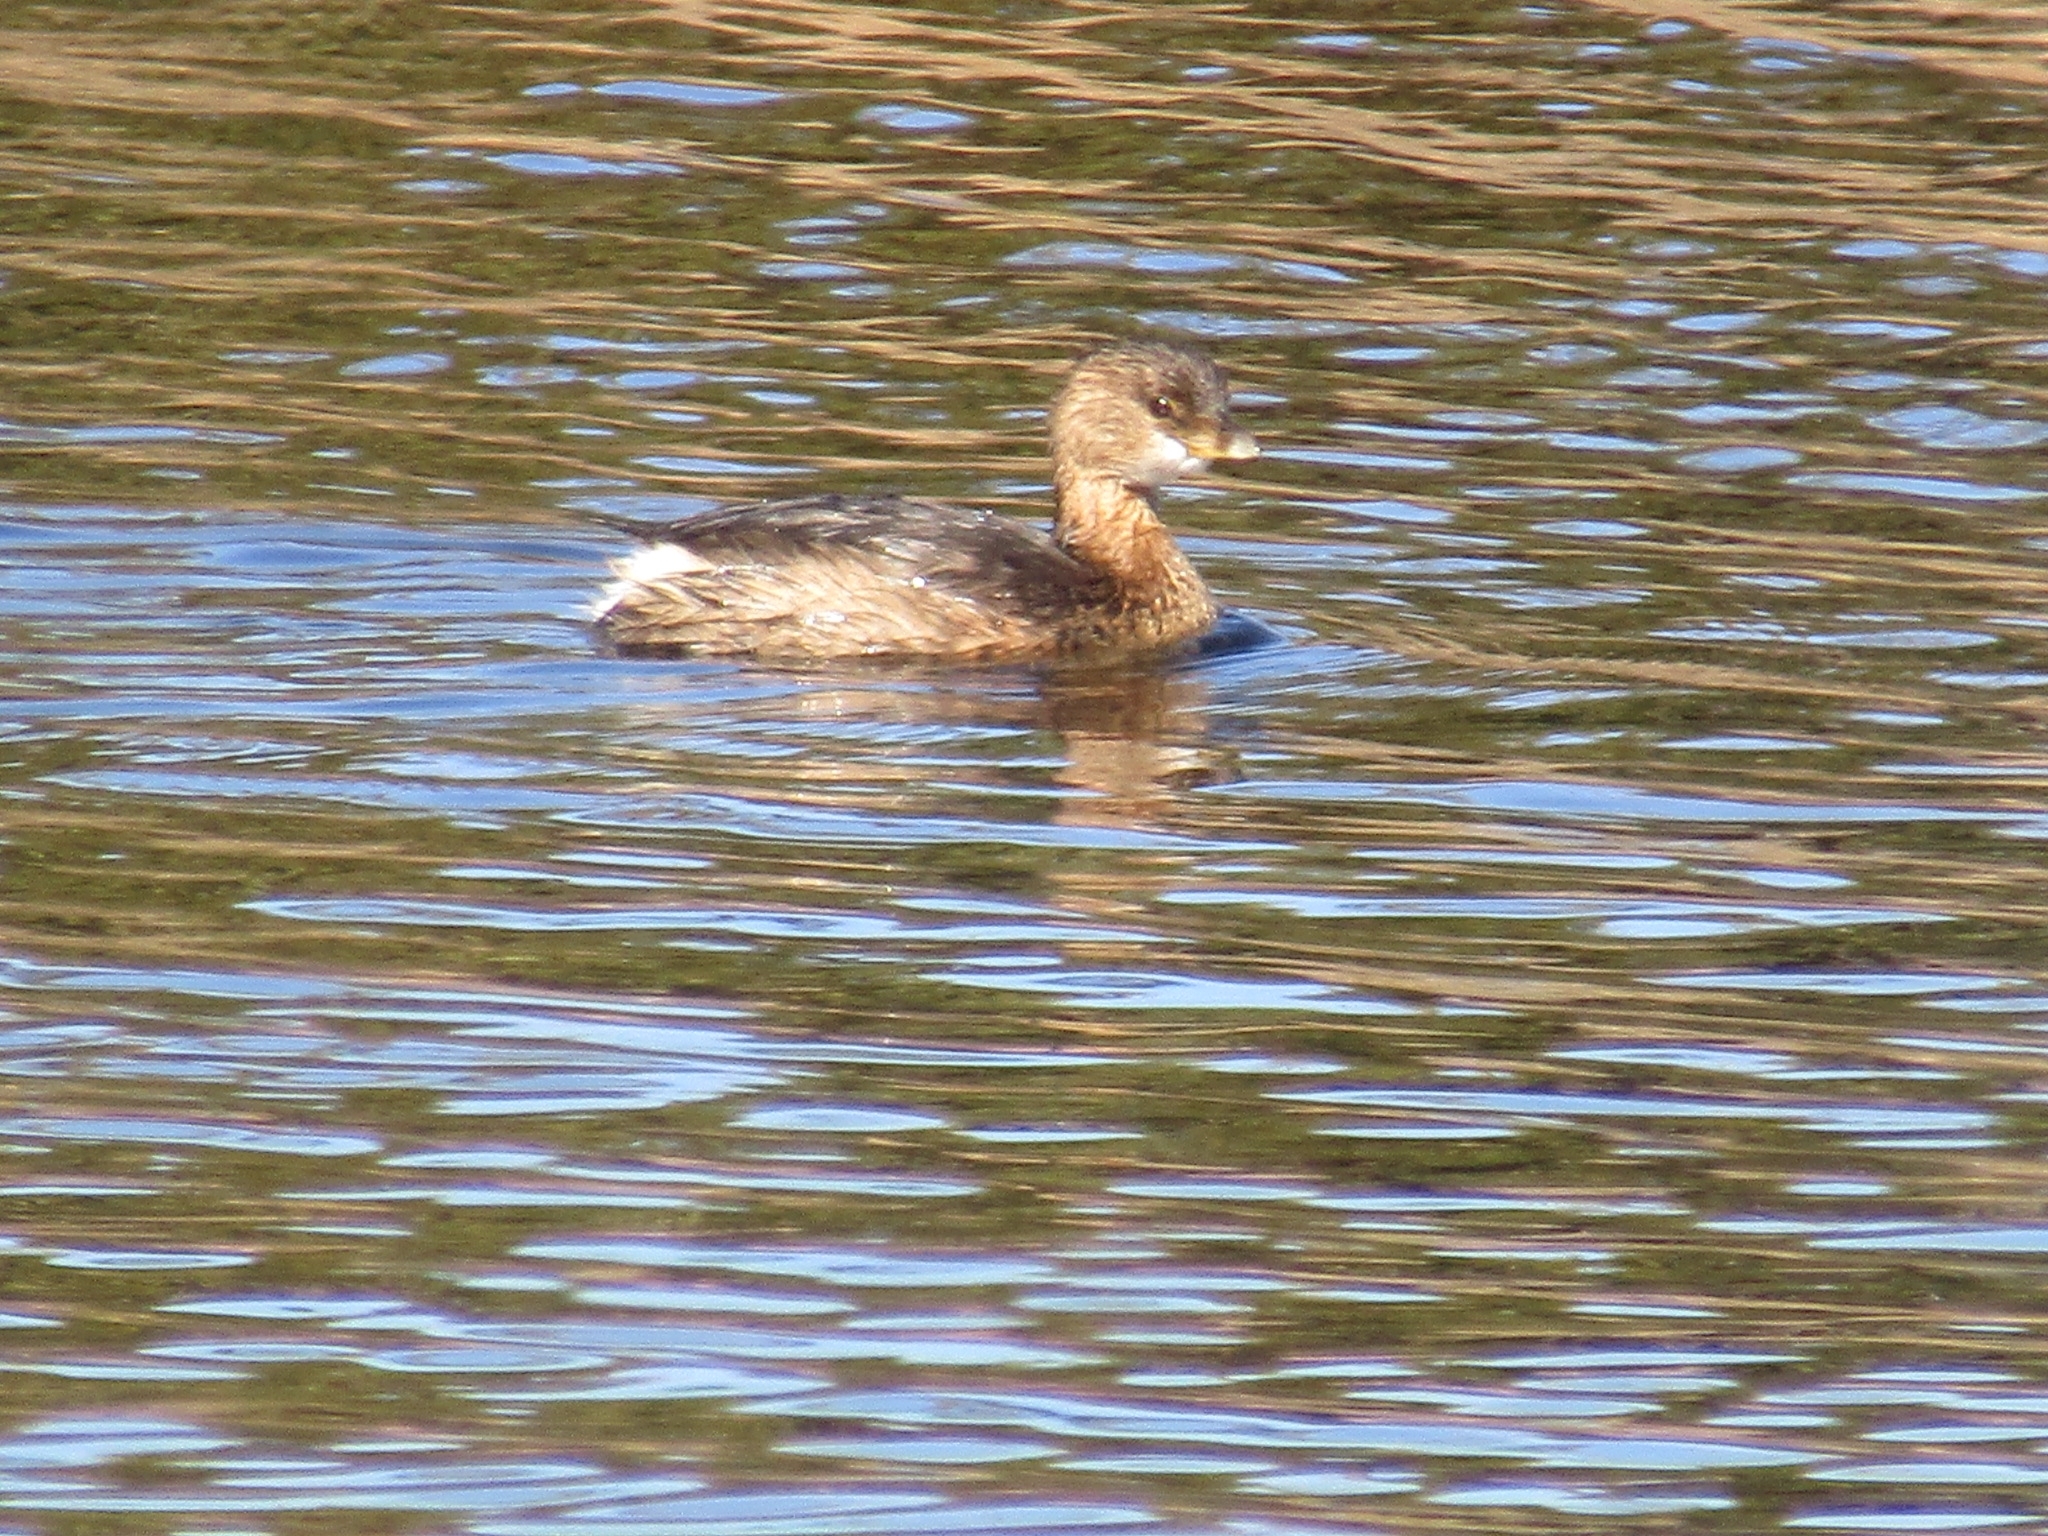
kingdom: Animalia
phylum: Chordata
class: Aves
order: Podicipediformes
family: Podicipedidae
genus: Podilymbus
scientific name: Podilymbus podiceps
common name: Pied-billed grebe
